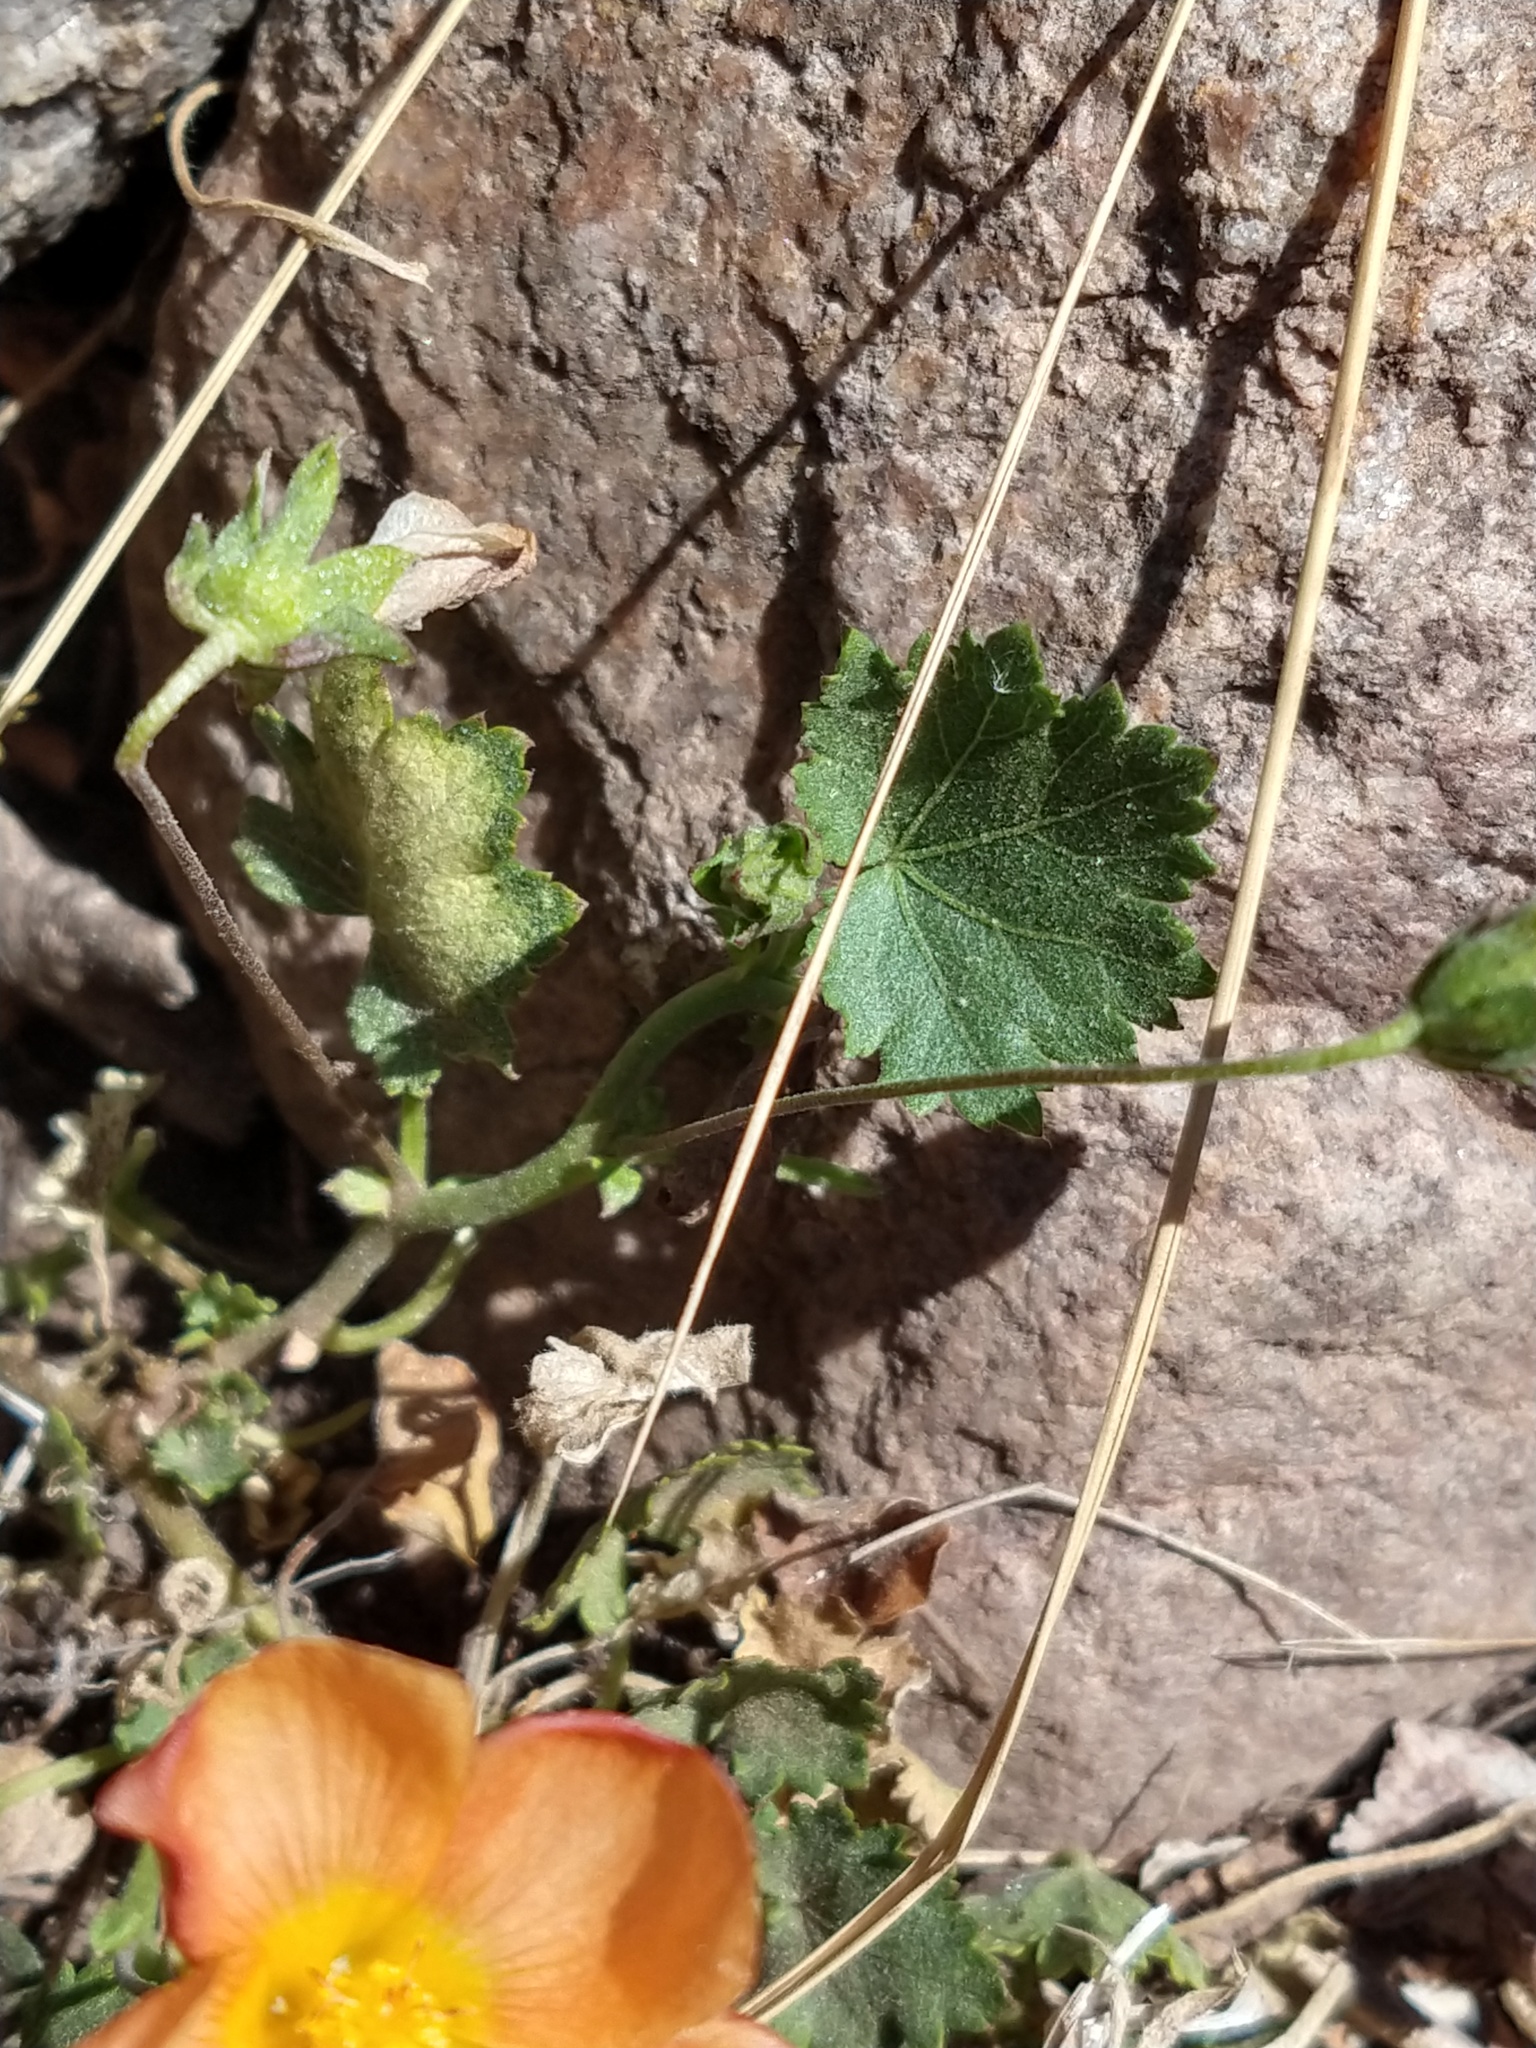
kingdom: Plantae
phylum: Tracheophyta
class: Magnoliopsida
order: Malvales
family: Malvaceae
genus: Modiolastrum
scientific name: Modiolastrum malvifolium
